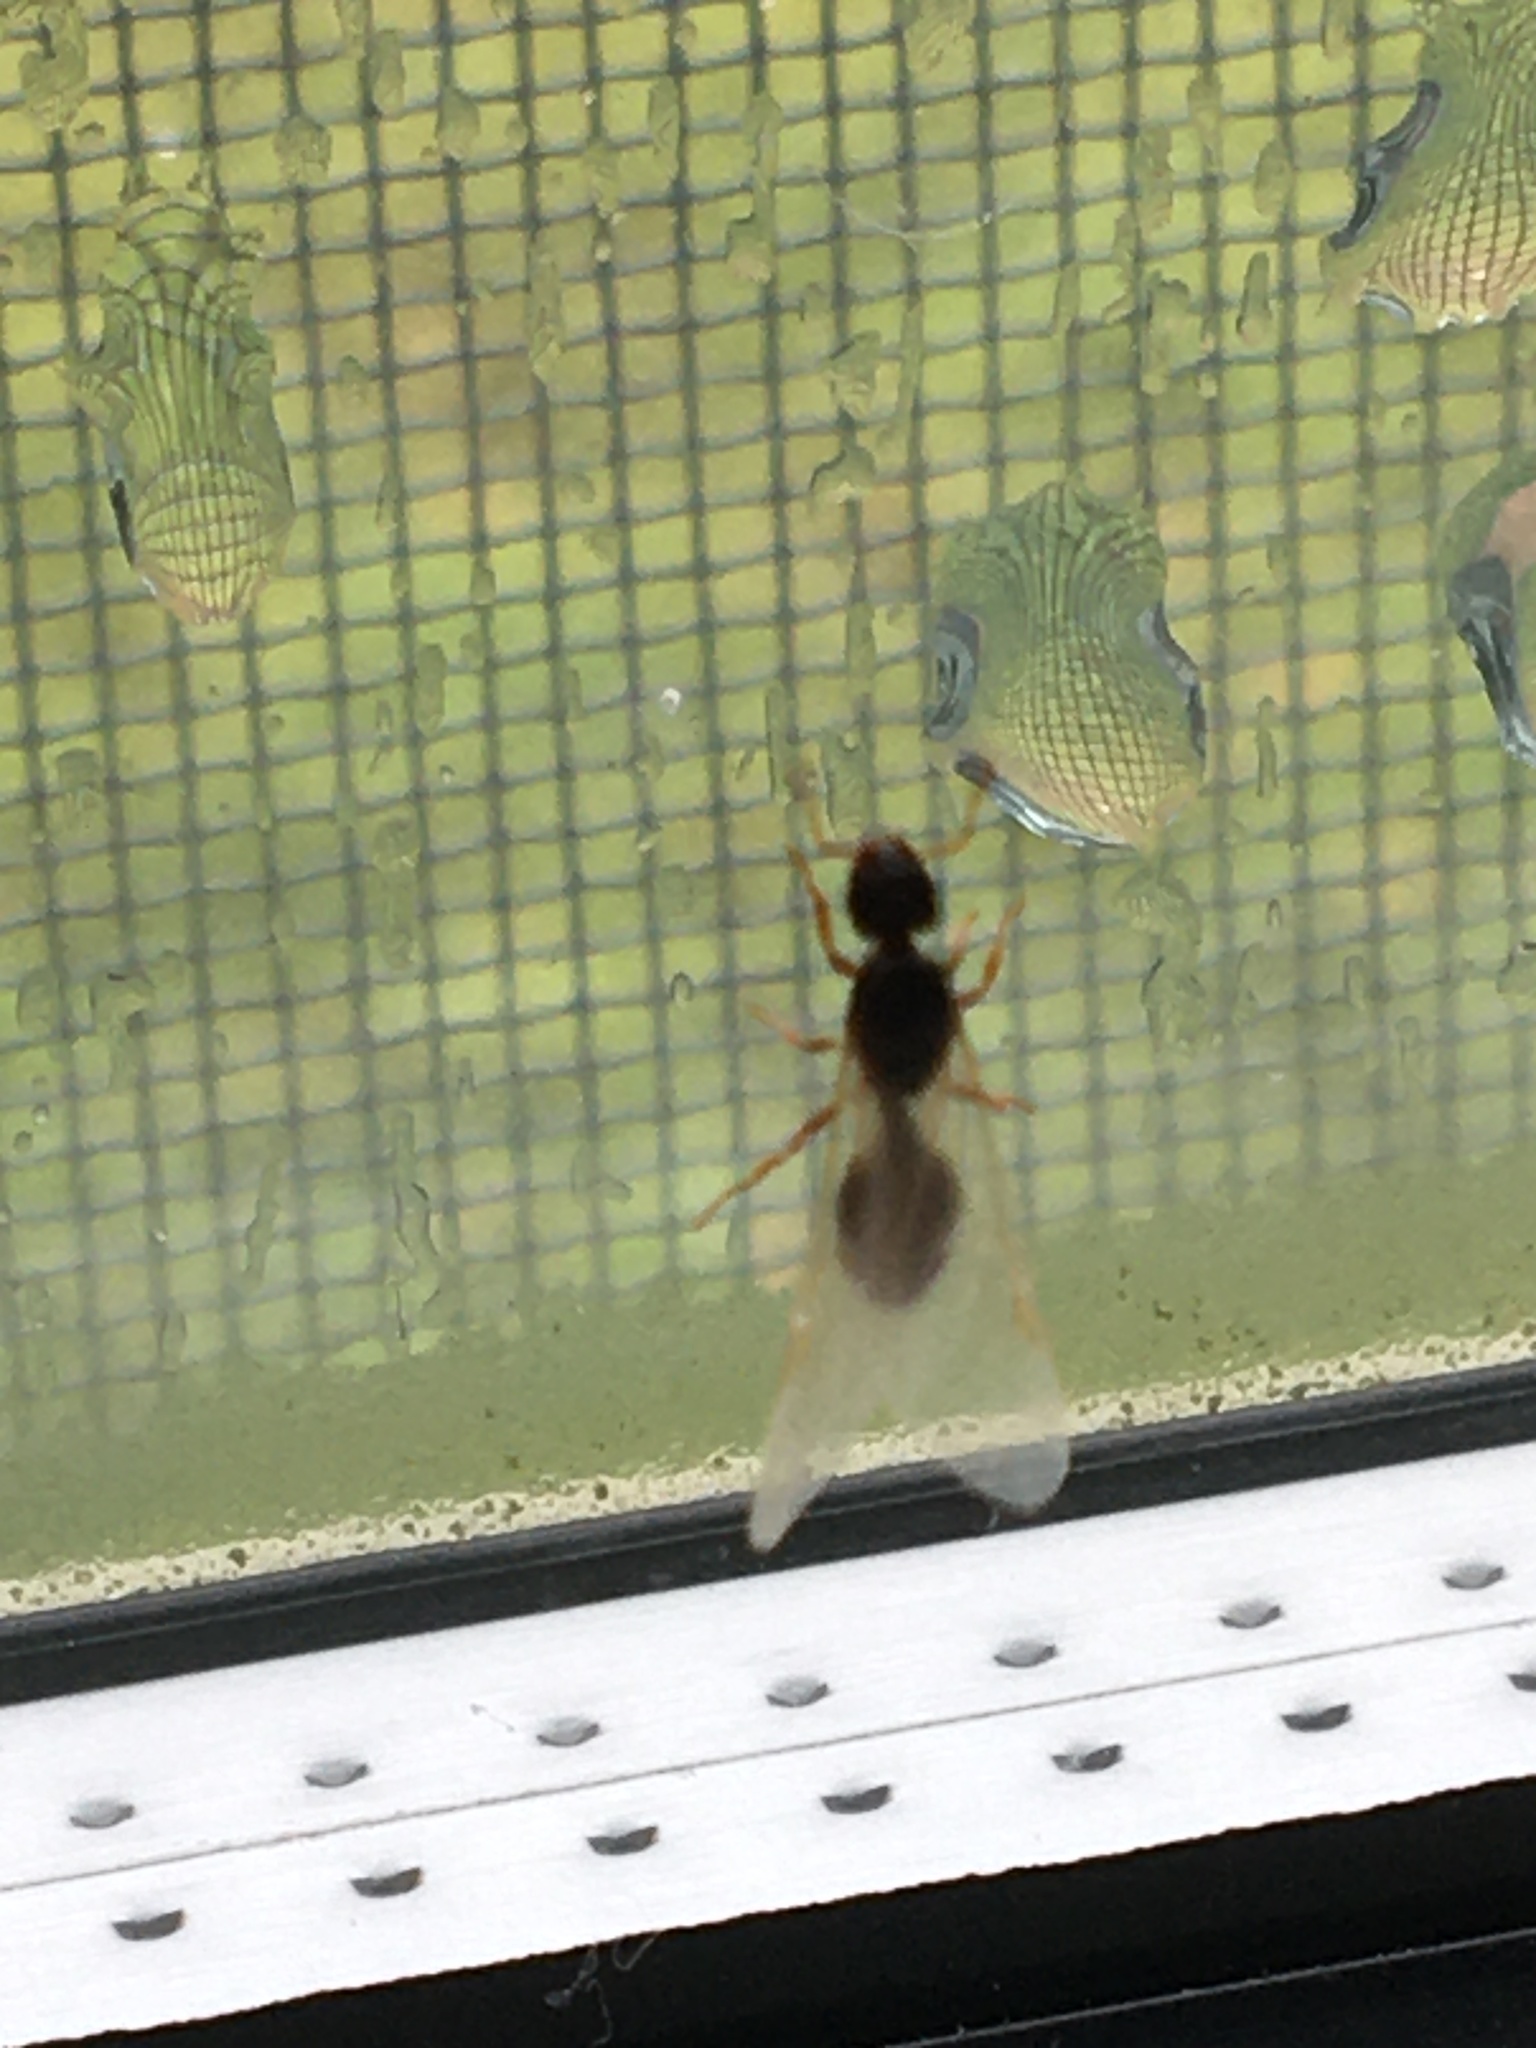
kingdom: Animalia
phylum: Arthropoda
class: Insecta
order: Hymenoptera
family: Formicidae
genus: Tetramorium
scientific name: Tetramorium immigrans
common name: Pavement ant
